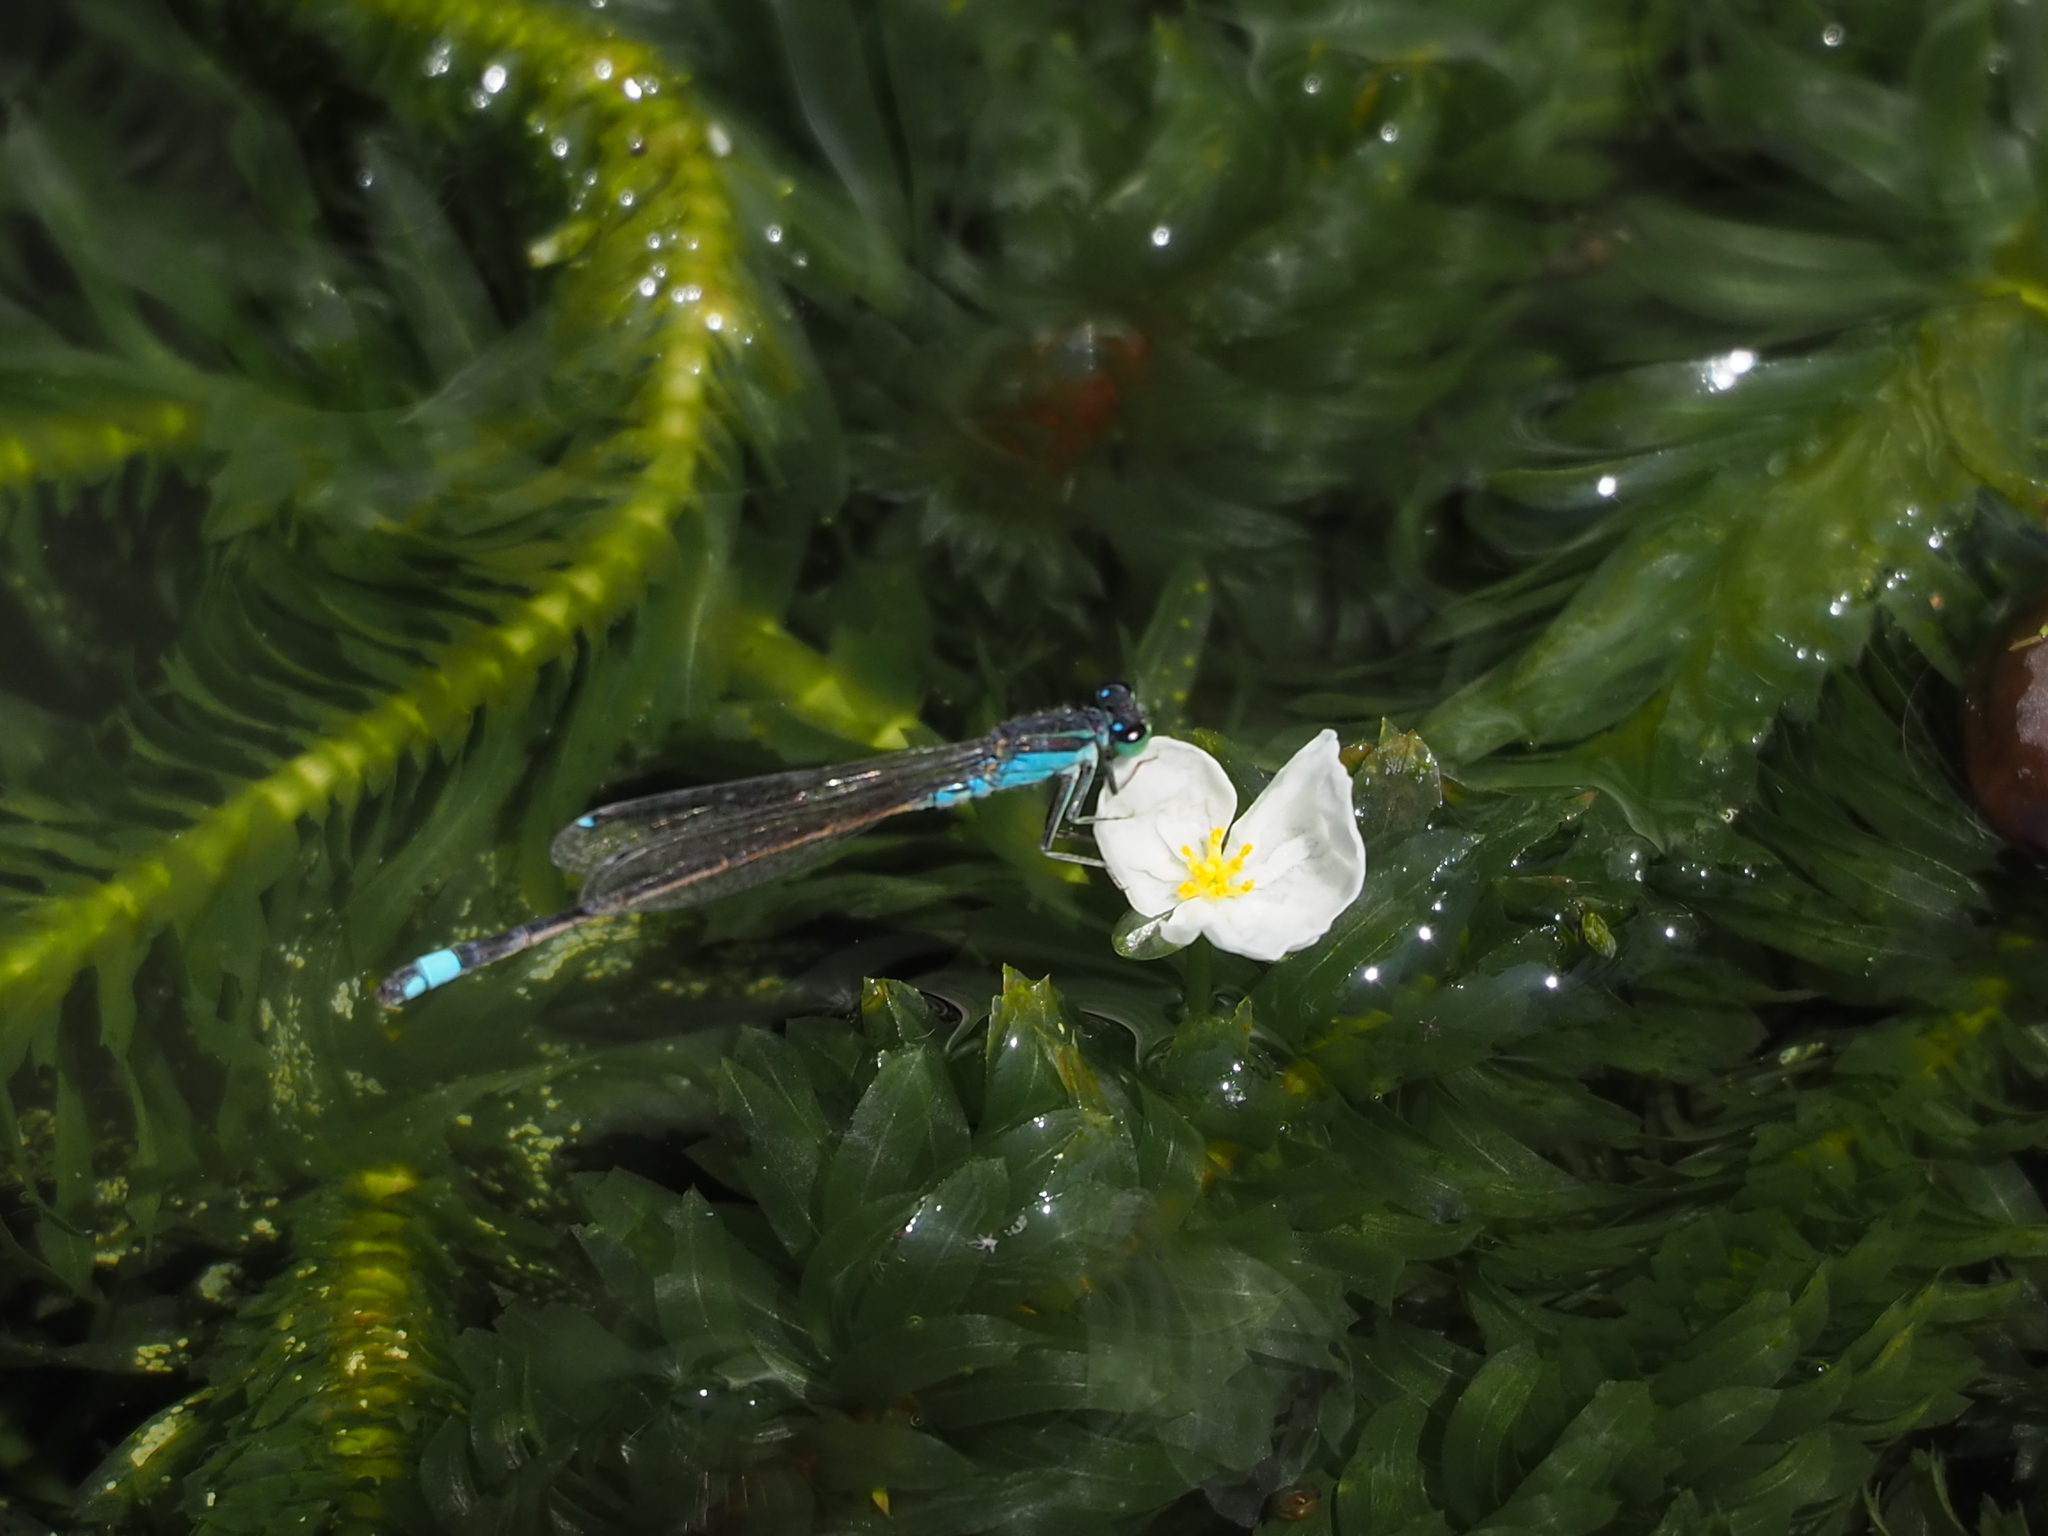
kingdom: Animalia
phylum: Arthropoda
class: Insecta
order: Odonata
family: Coenagrionidae
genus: Ischnura
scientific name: Ischnura senegalensis
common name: Tropical bluetail
